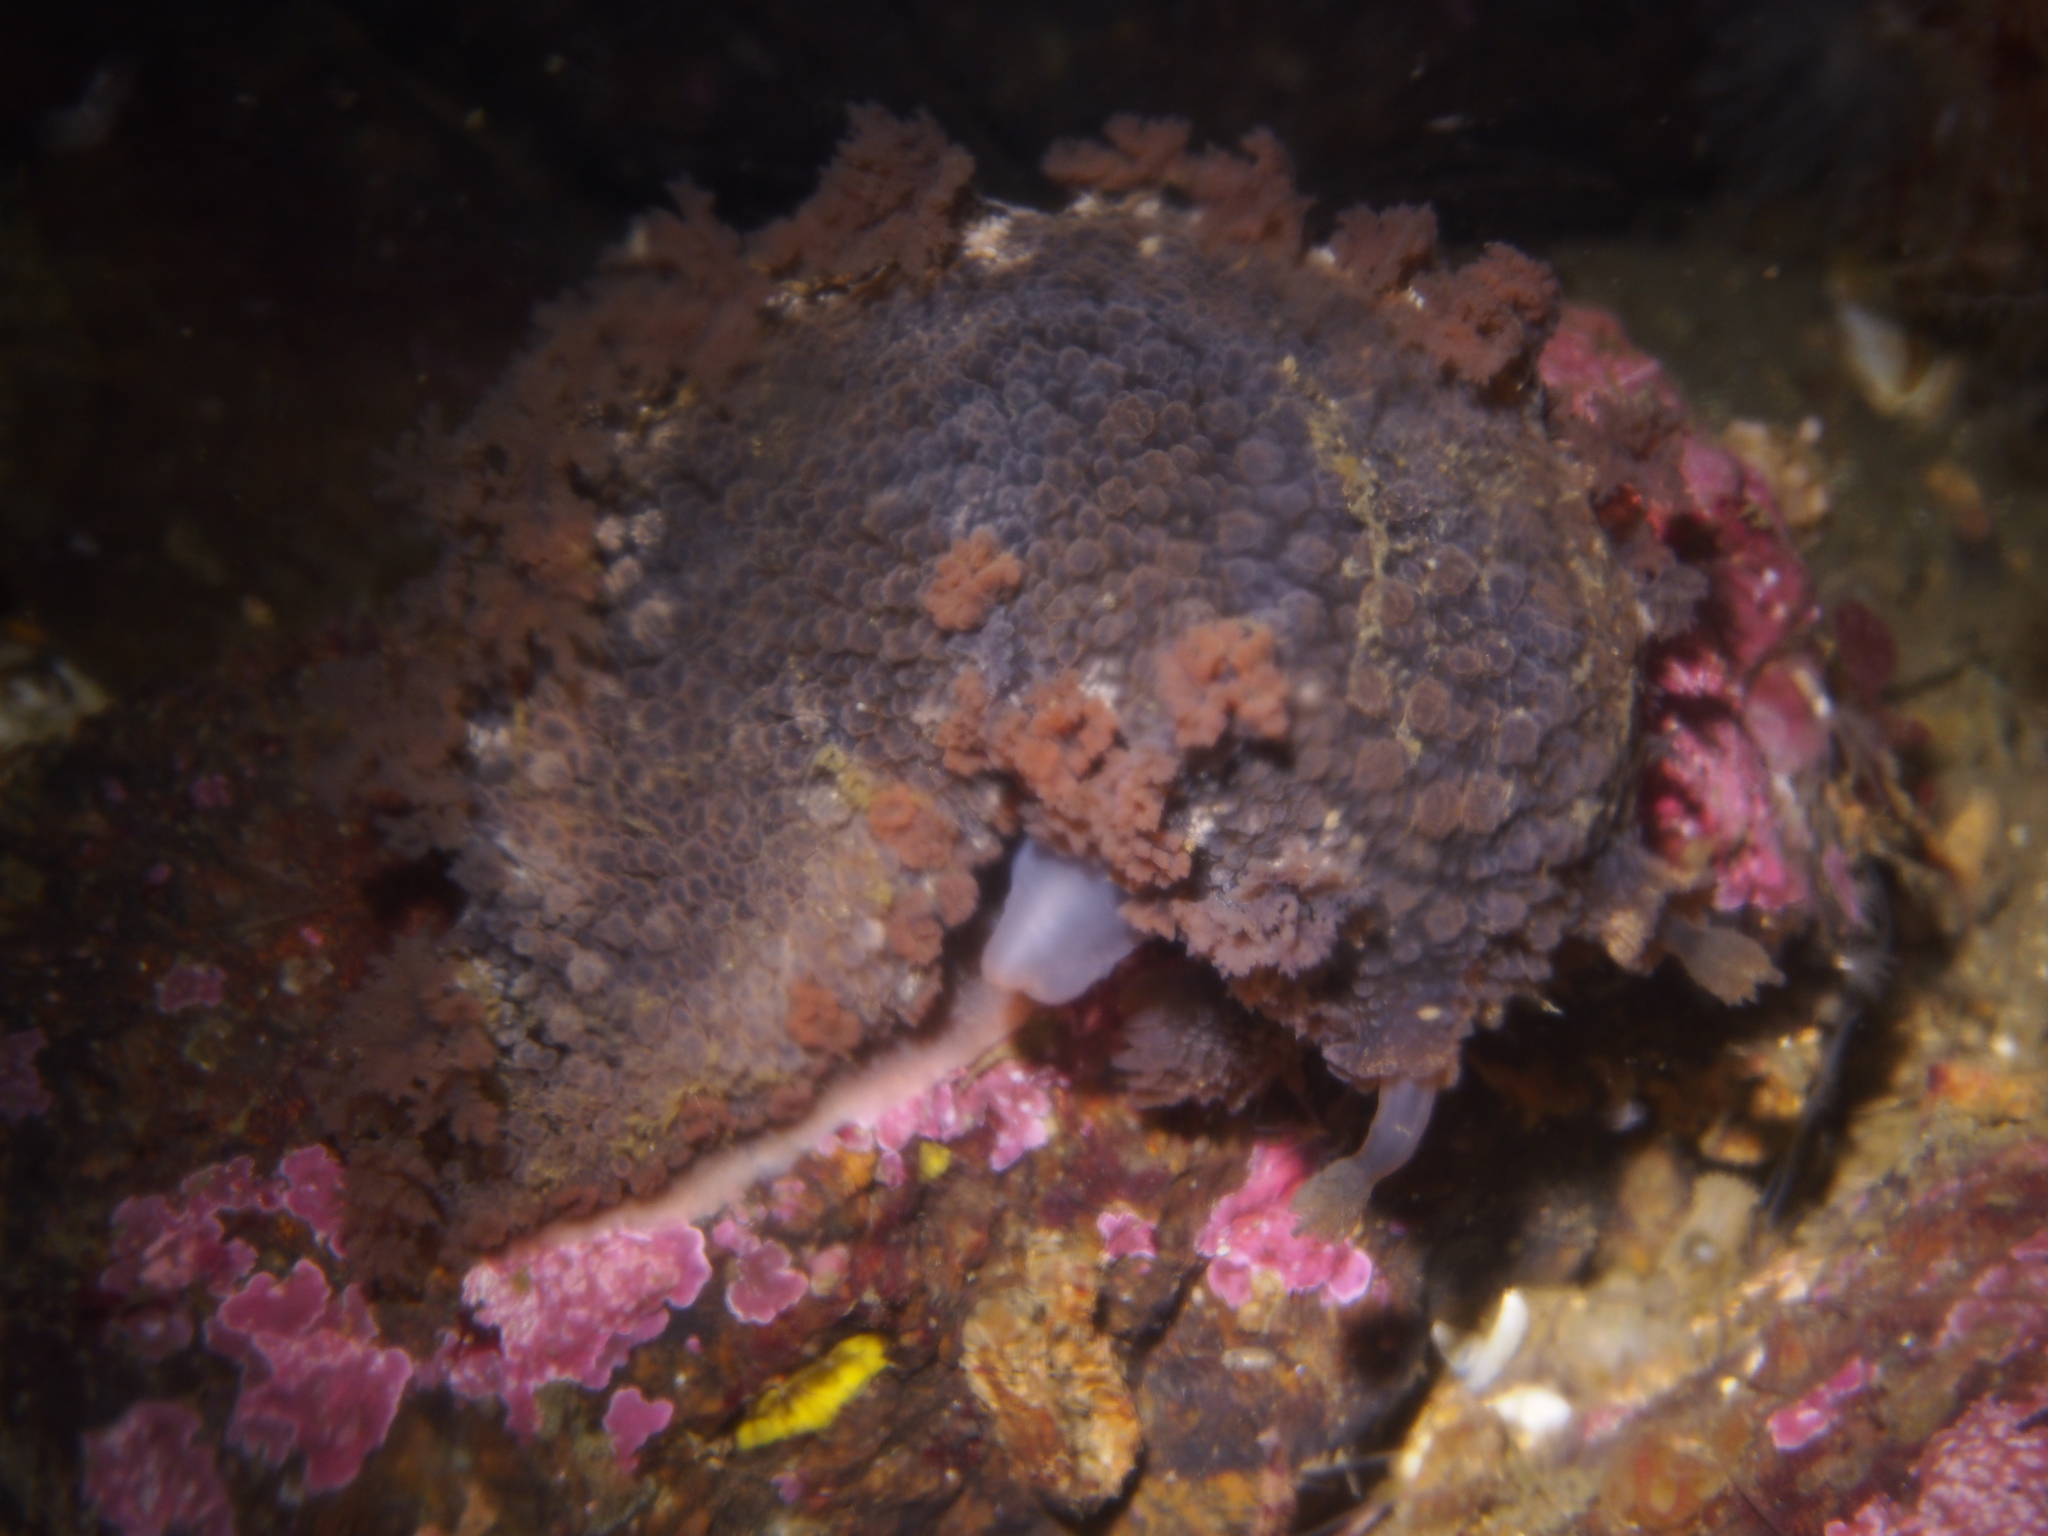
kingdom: Animalia
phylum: Mollusca
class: Gastropoda
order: Nudibranchia
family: Tritoniidae
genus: Tritonia
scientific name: Tritonia hombergii
